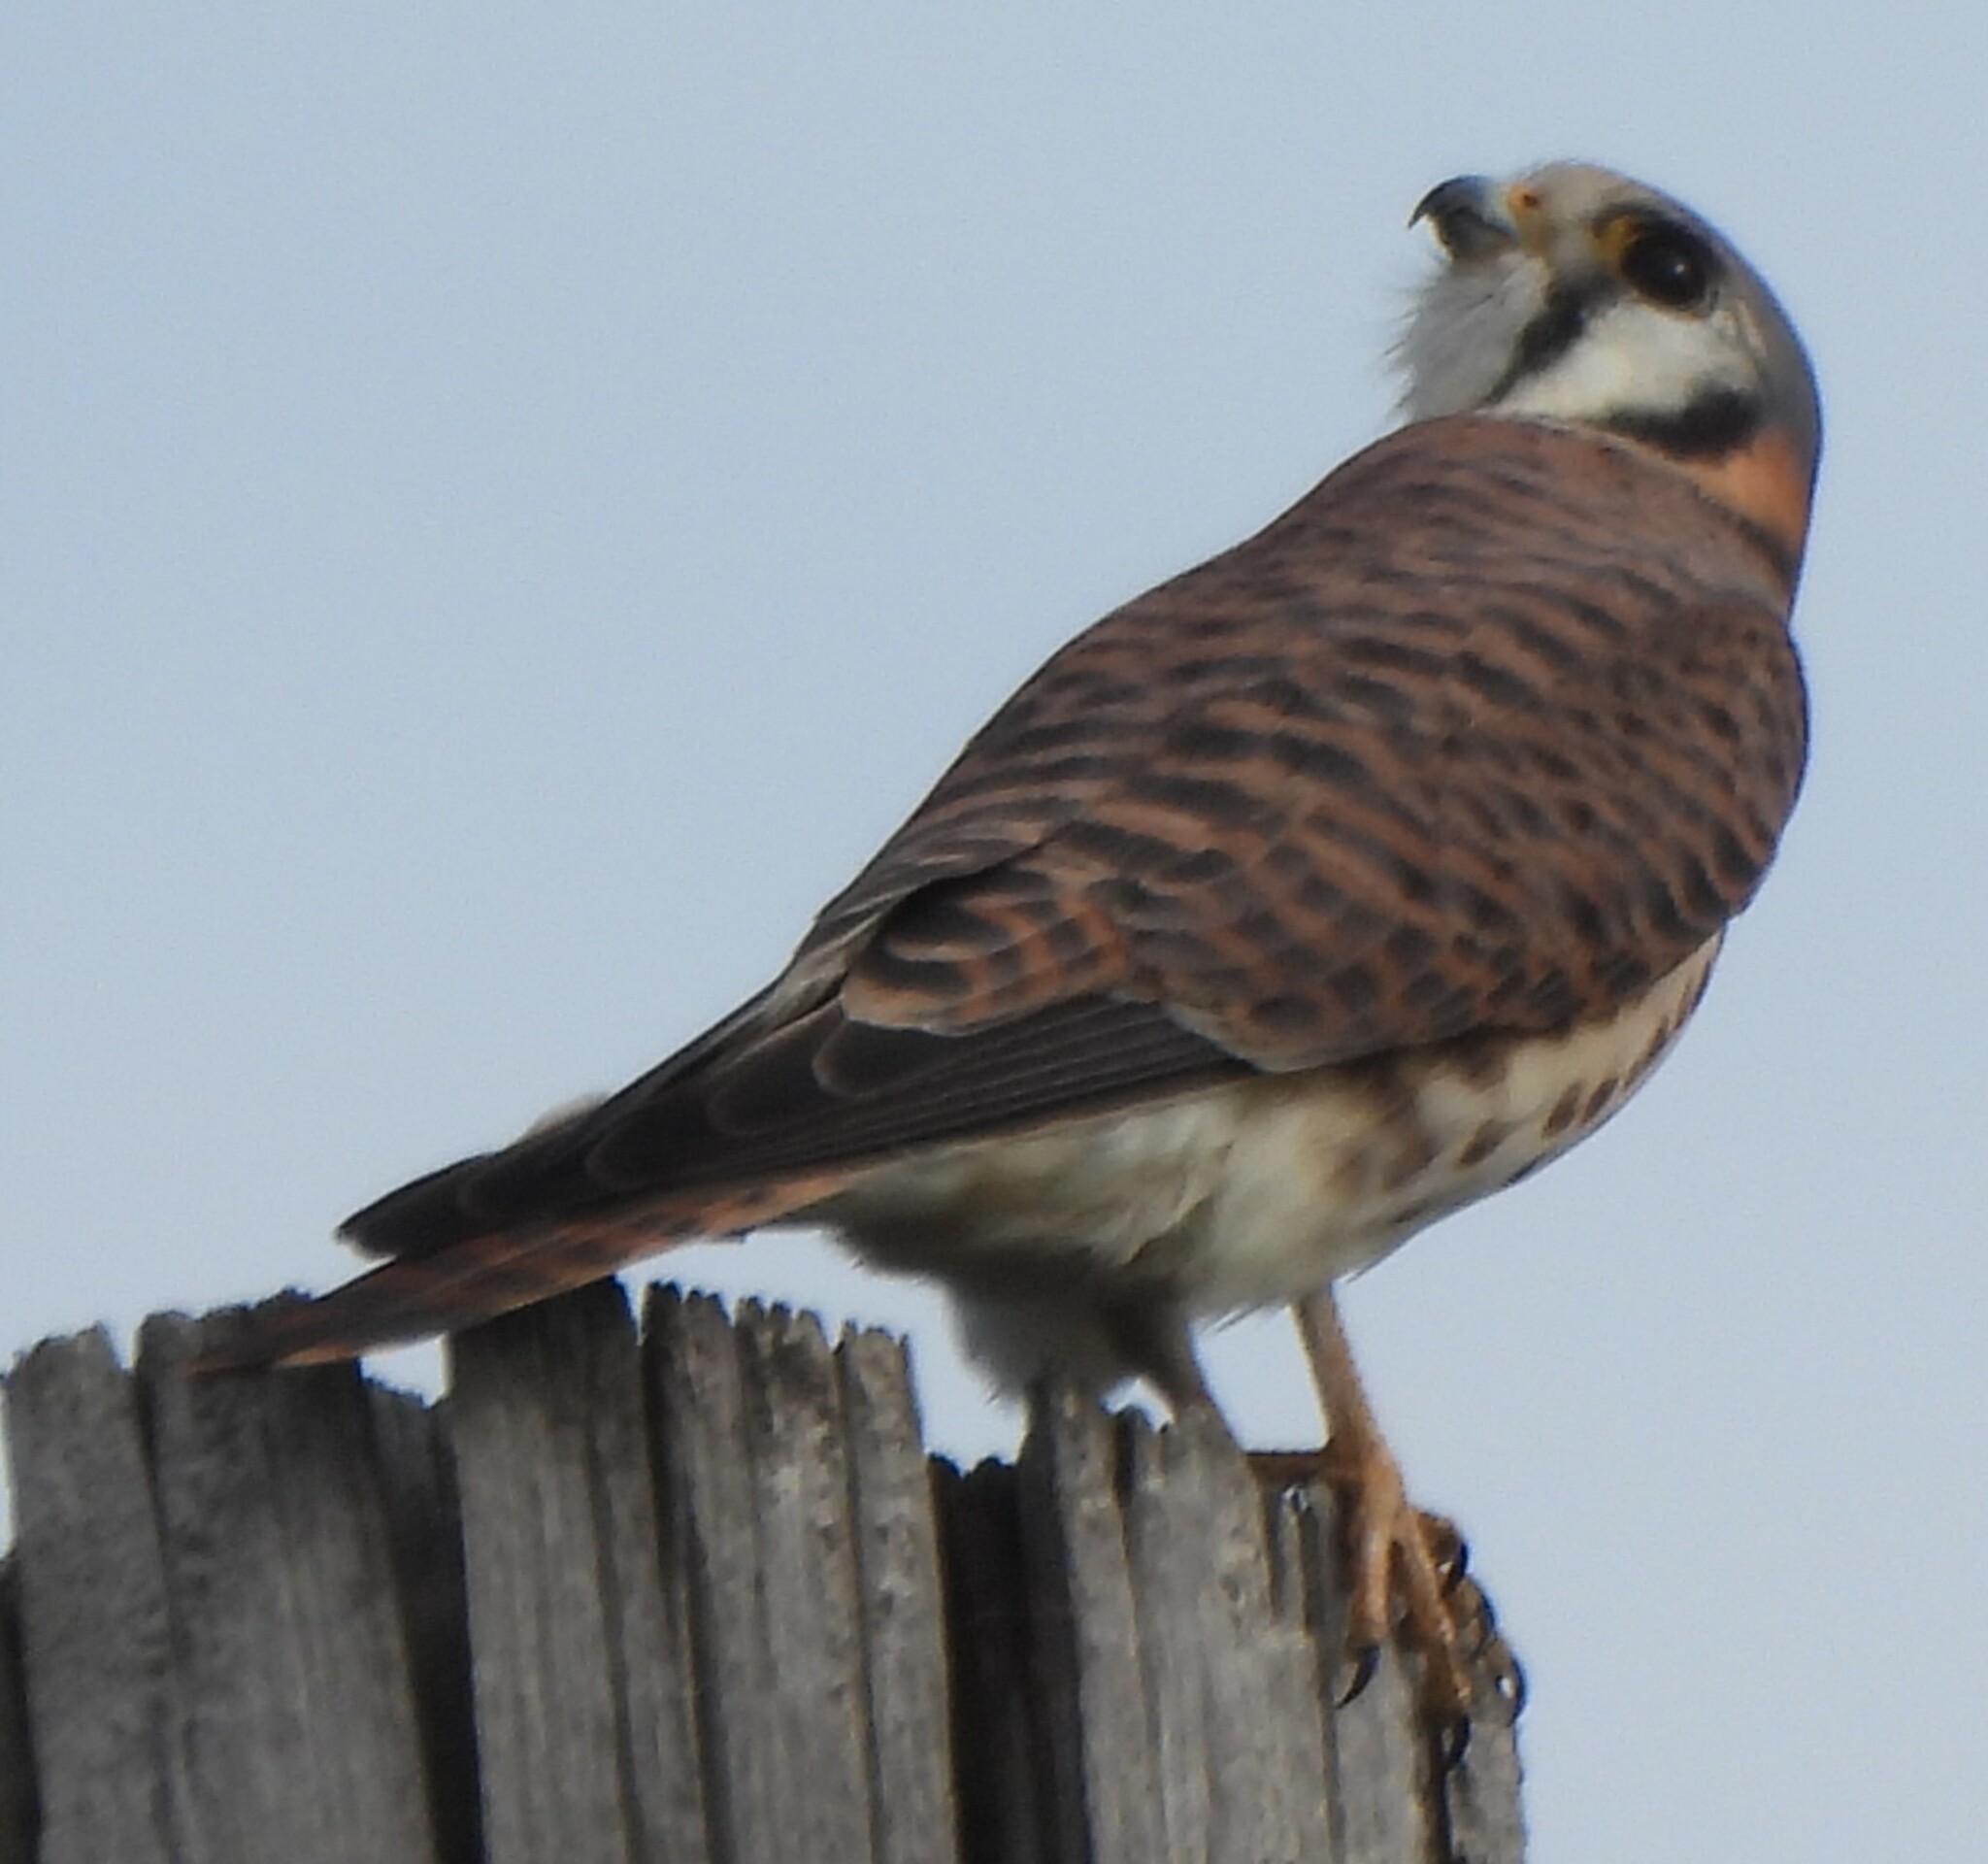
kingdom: Animalia
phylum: Chordata
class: Aves
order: Falconiformes
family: Falconidae
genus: Falco
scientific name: Falco sparverius
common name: American kestrel
